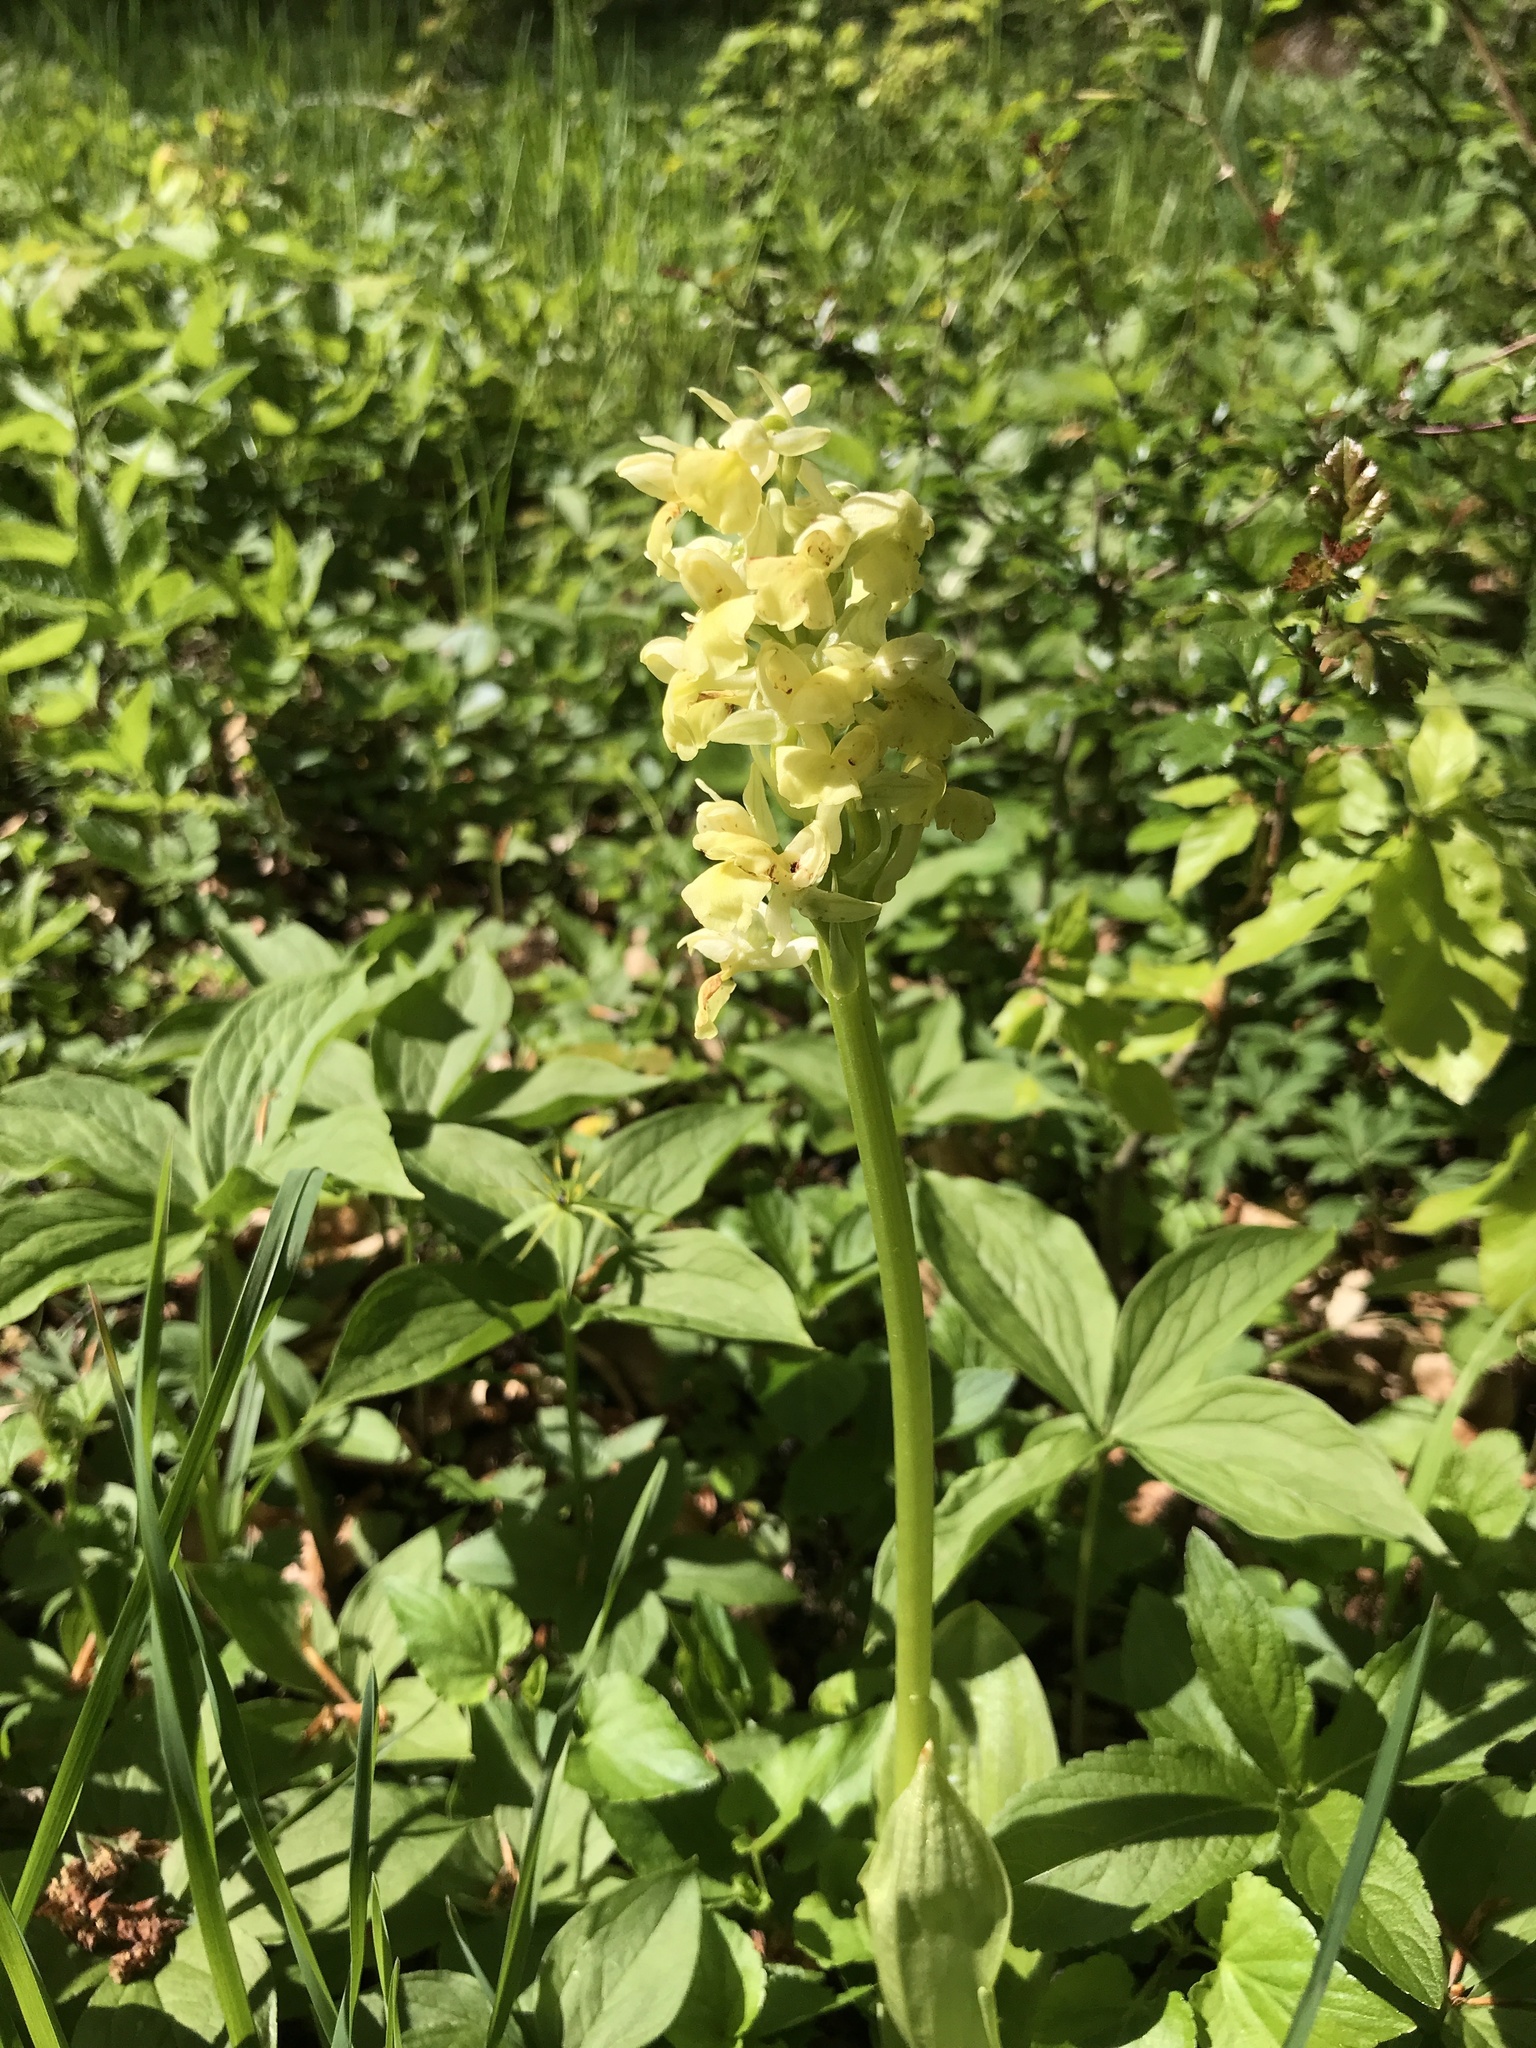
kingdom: Plantae
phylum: Tracheophyta
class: Liliopsida
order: Asparagales
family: Orchidaceae
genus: Orchis
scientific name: Orchis pallens
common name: Pale-flowered orchid
